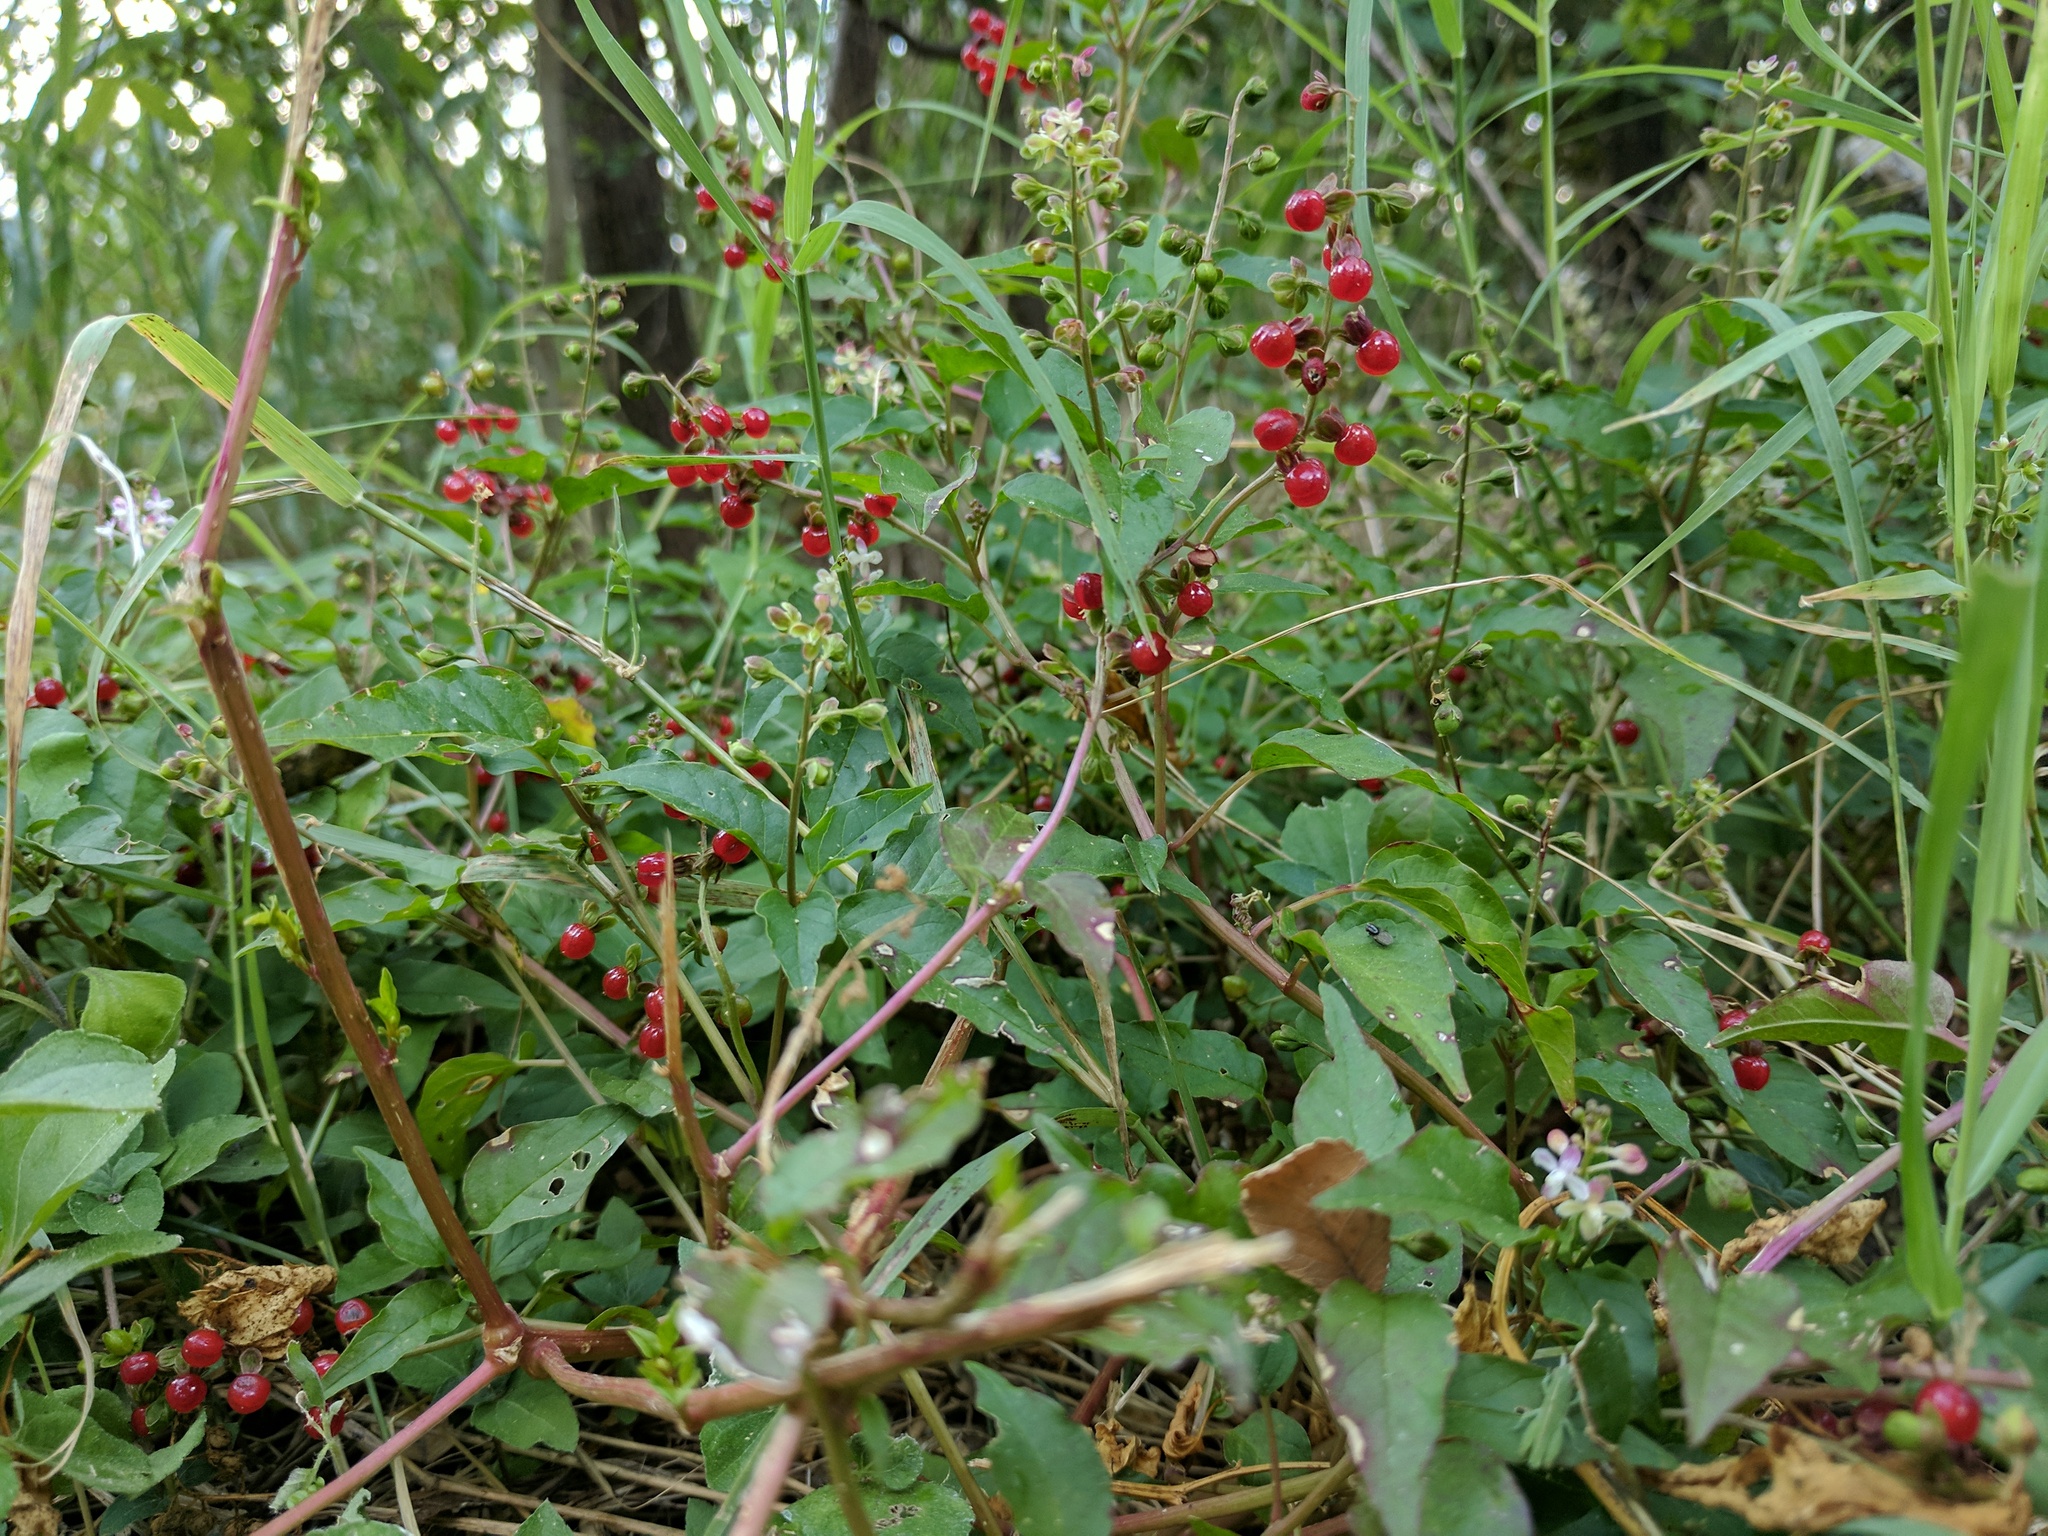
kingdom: Plantae
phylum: Tracheophyta
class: Magnoliopsida
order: Caryophyllales
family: Phytolaccaceae
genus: Rivina
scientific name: Rivina humilis
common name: Rougeplant
